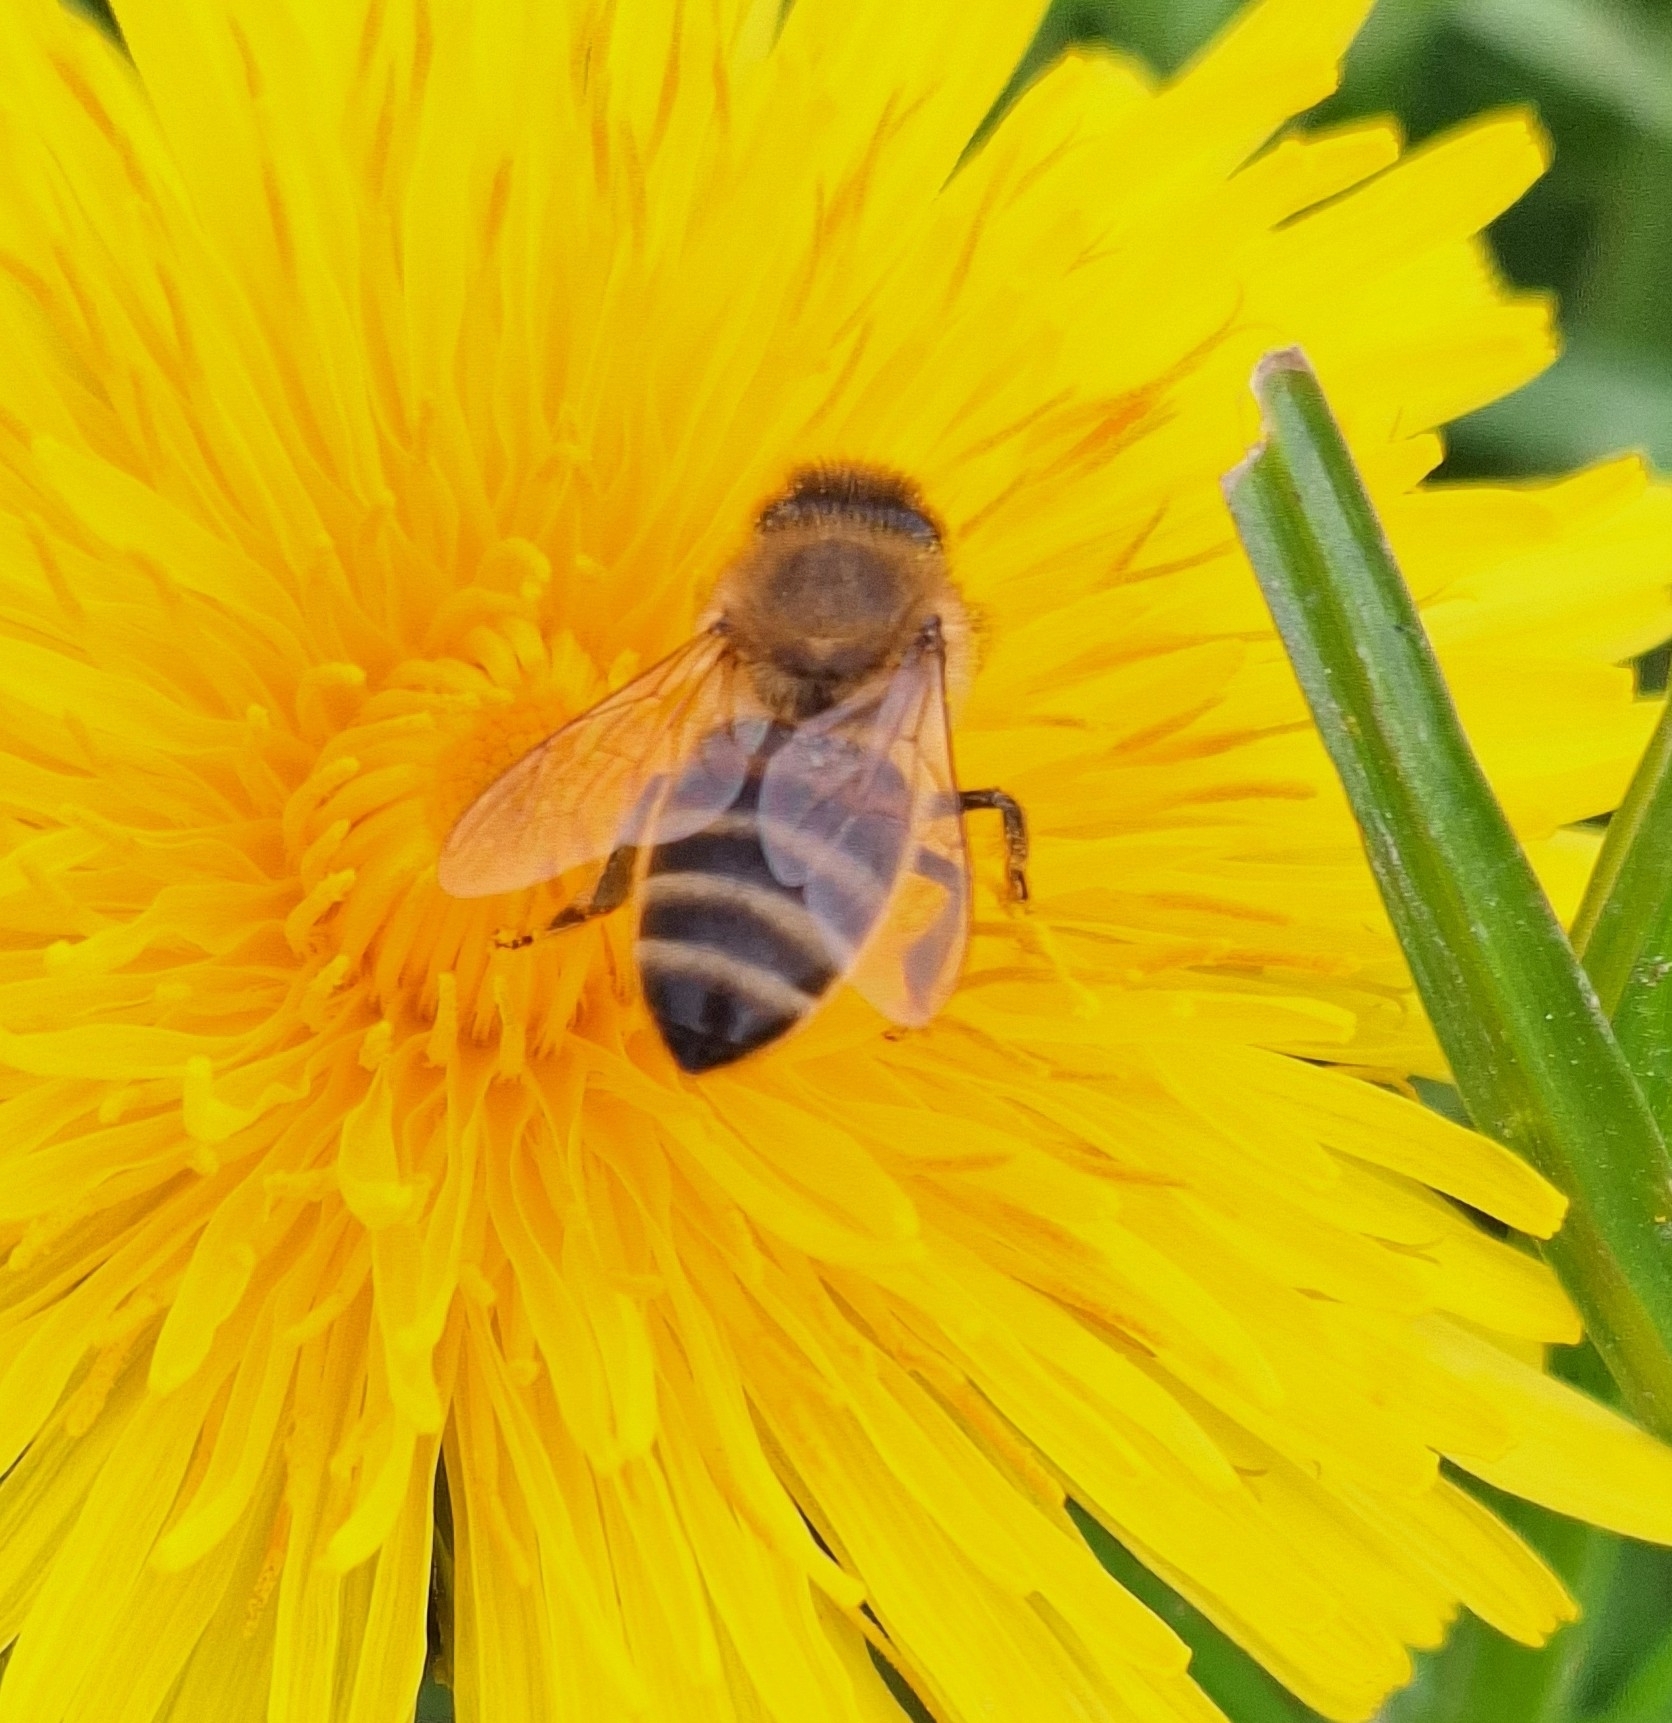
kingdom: Animalia
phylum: Arthropoda
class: Insecta
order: Hymenoptera
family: Apidae
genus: Apis
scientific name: Apis mellifera
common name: Honey bee
